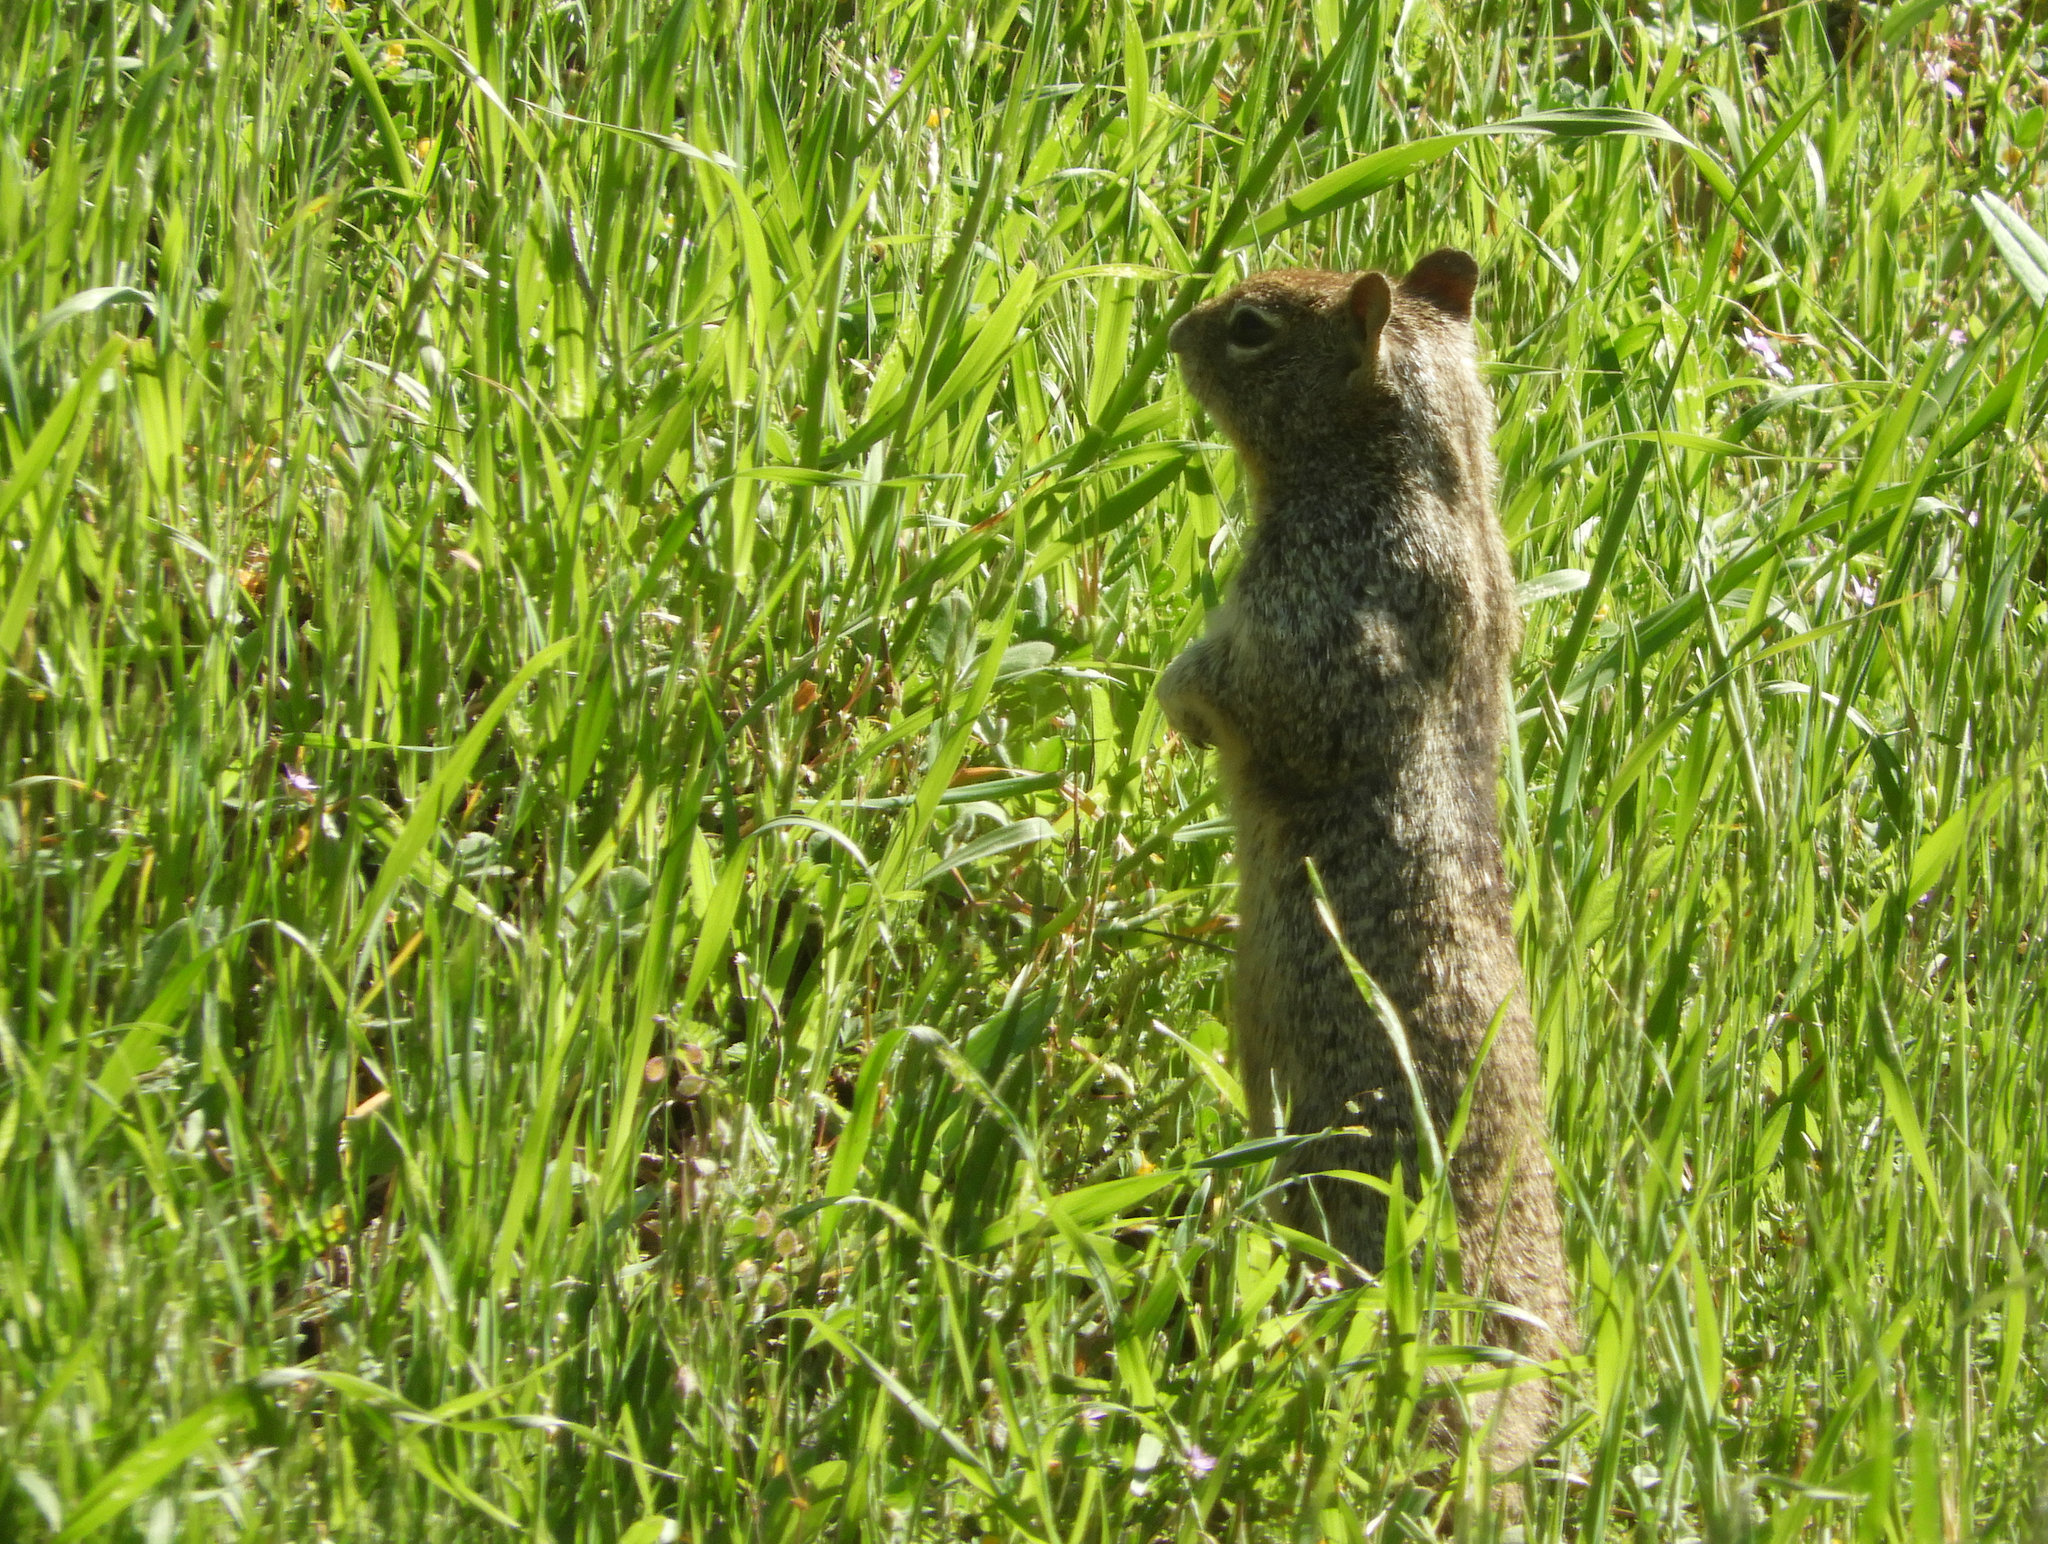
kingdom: Animalia
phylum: Chordata
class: Mammalia
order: Rodentia
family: Sciuridae
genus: Otospermophilus
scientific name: Otospermophilus beecheyi
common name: California ground squirrel
